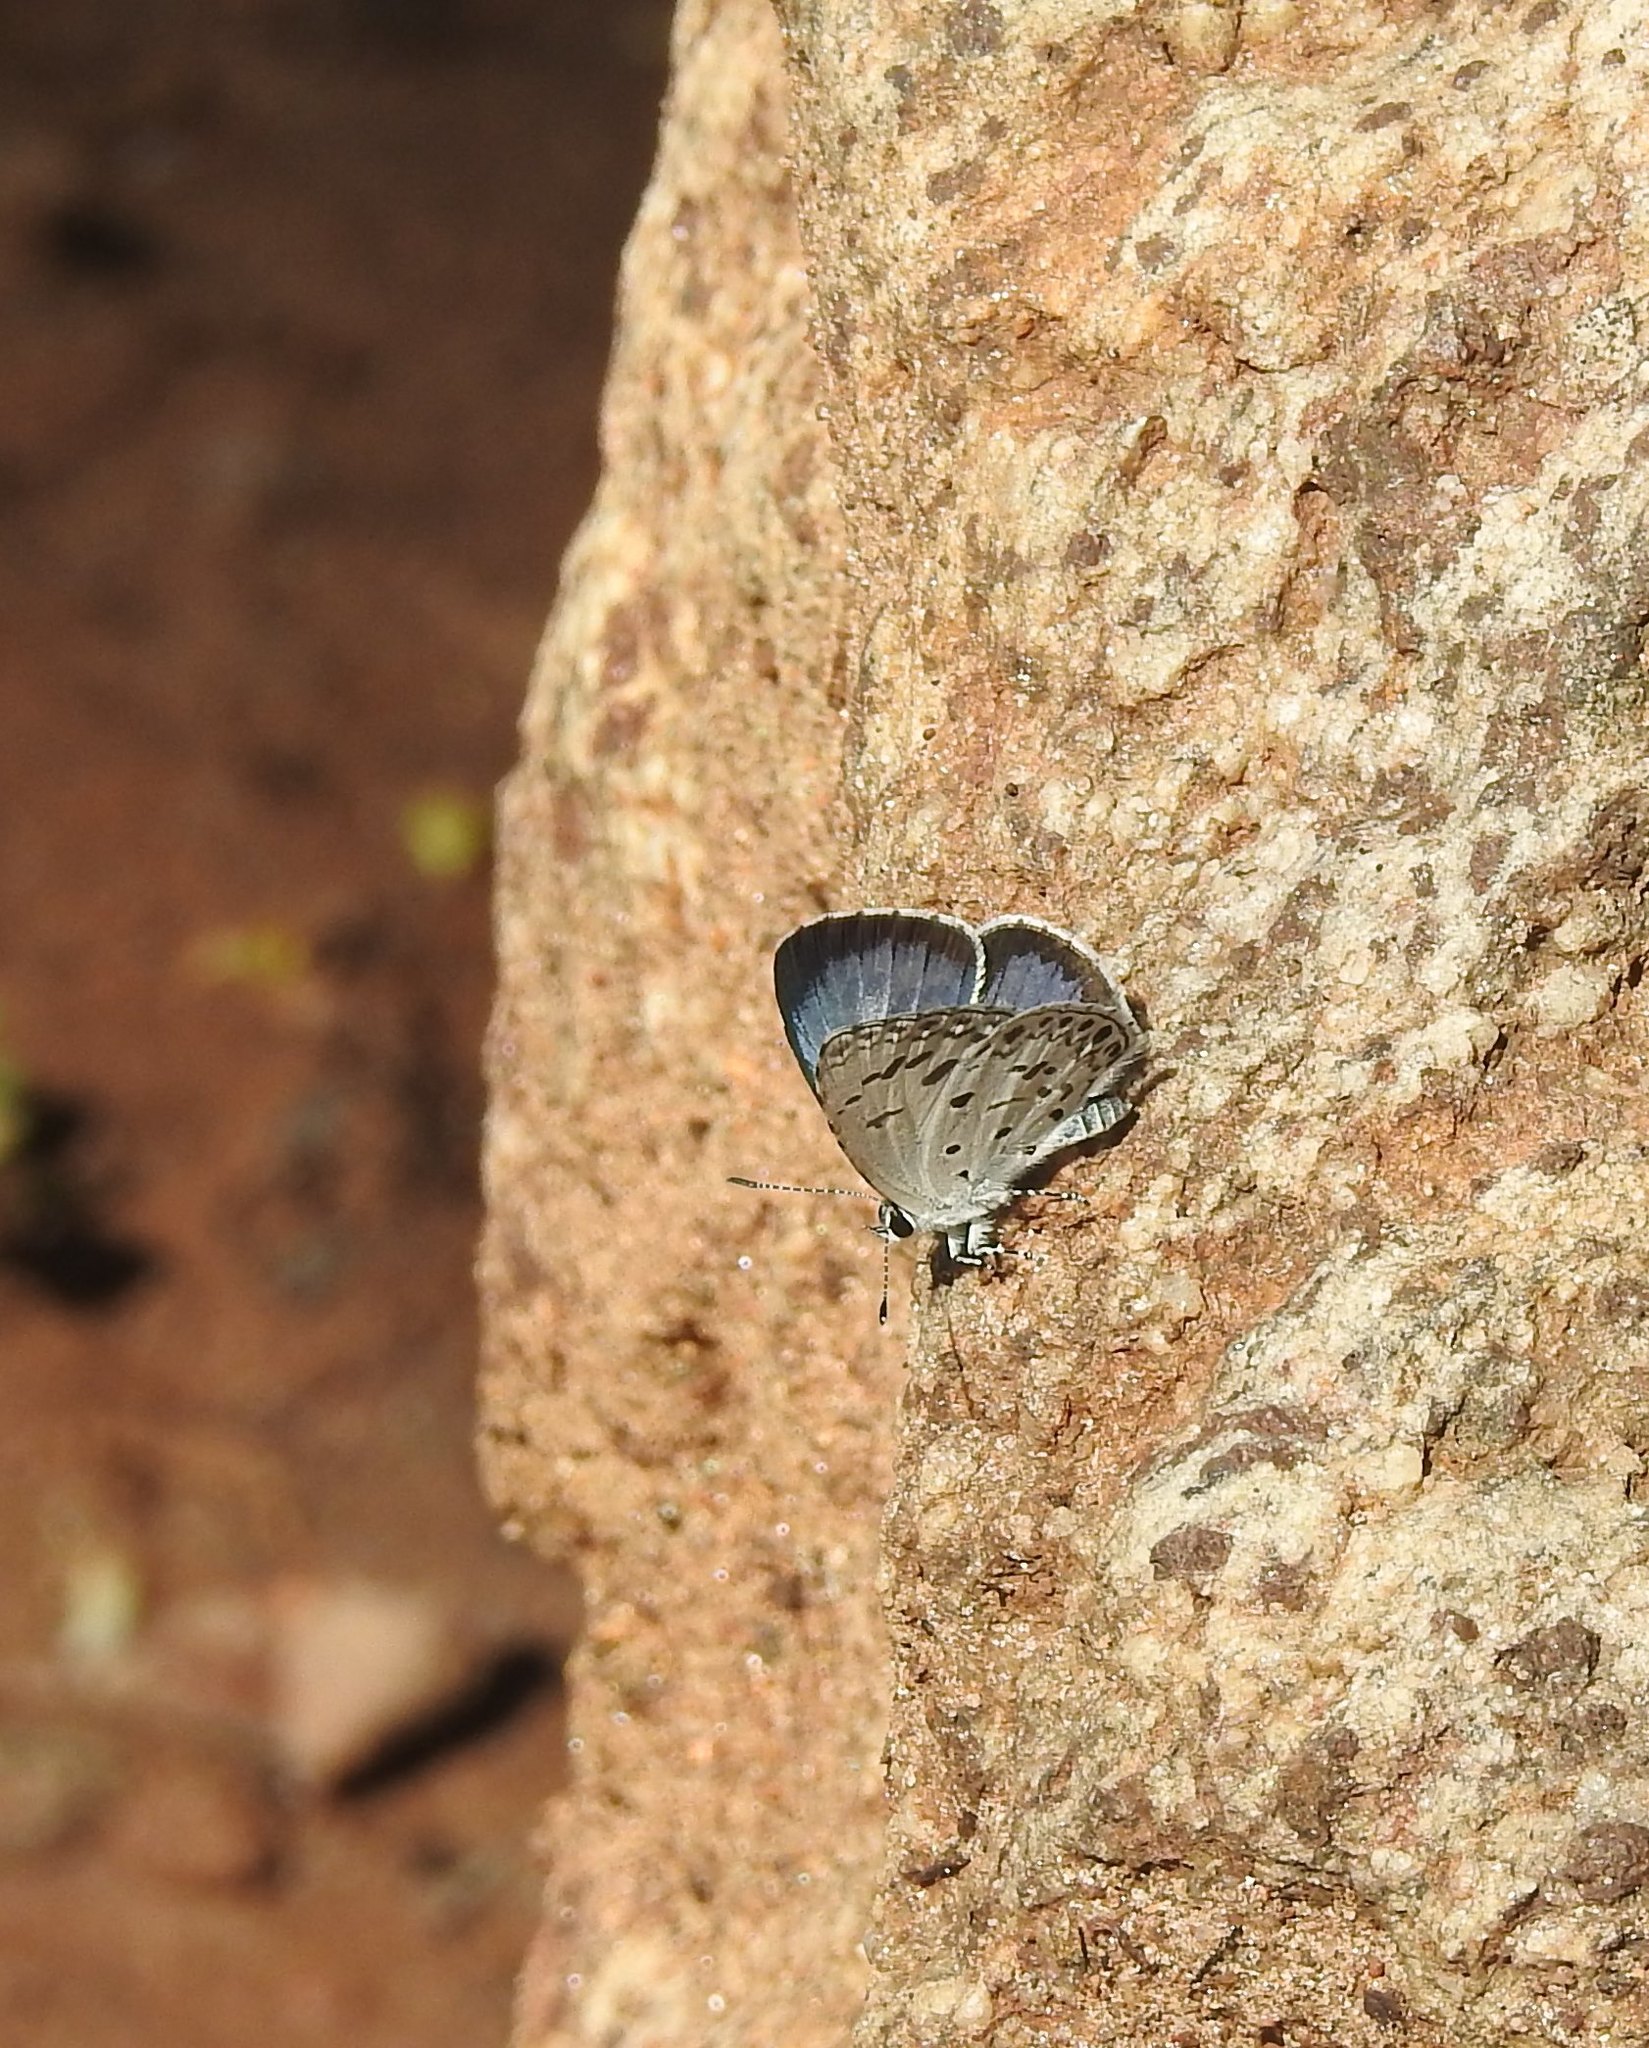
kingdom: Animalia
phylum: Arthropoda
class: Insecta
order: Lepidoptera
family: Lycaenidae
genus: Acytolepis
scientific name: Acytolepis puspa
